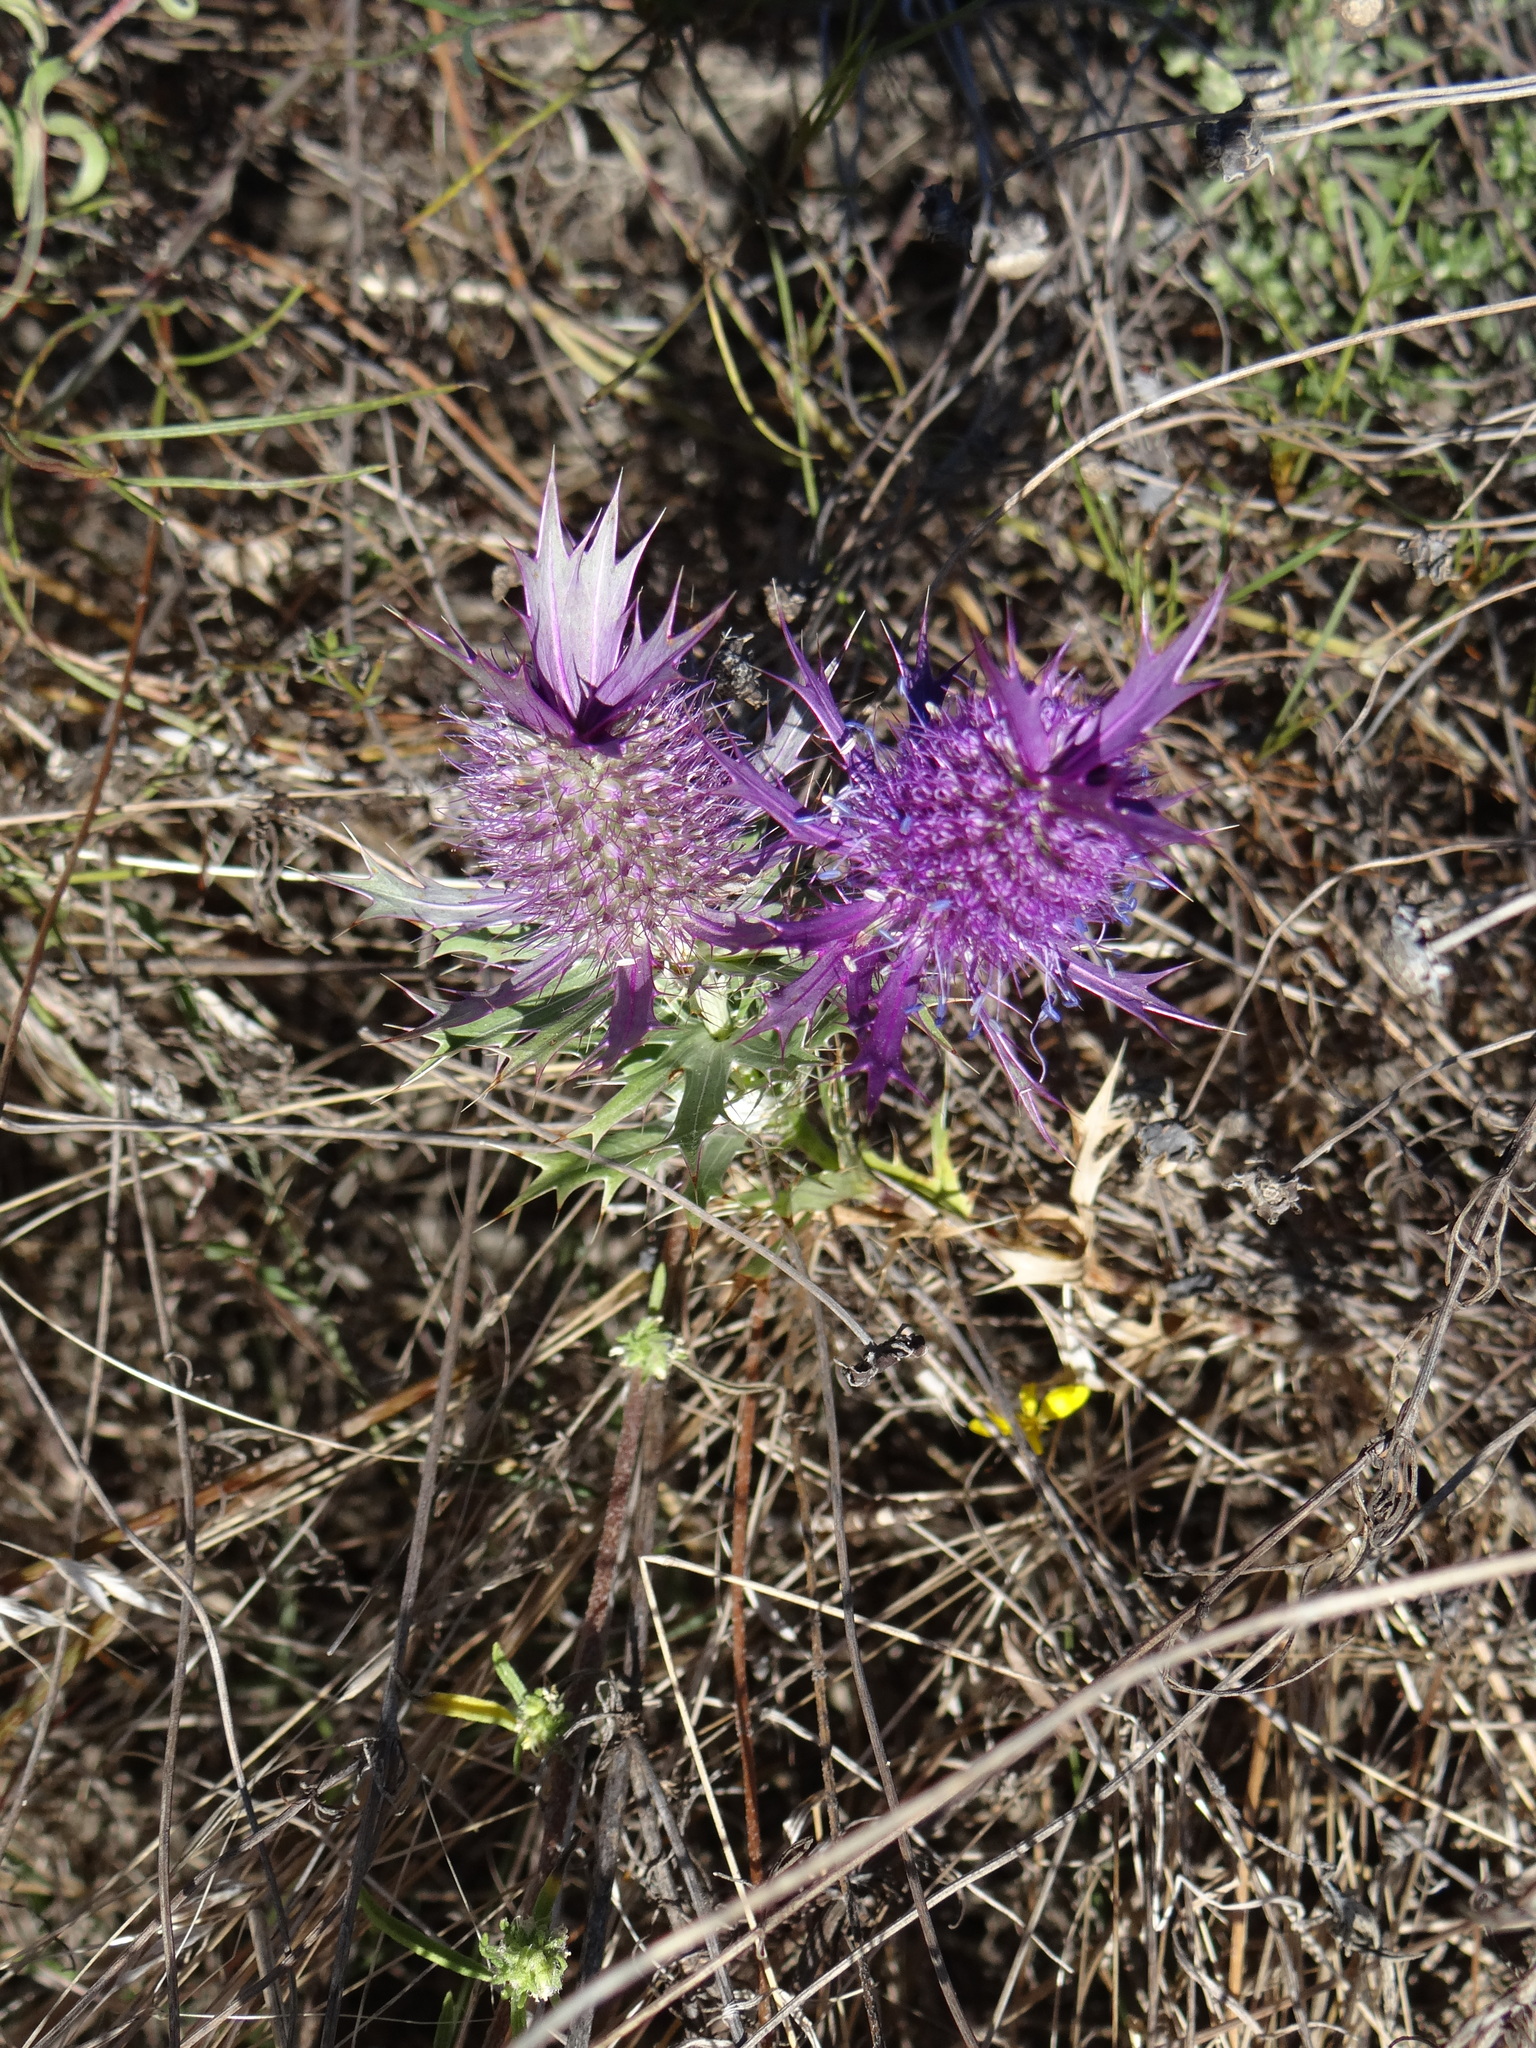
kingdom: Plantae
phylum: Tracheophyta
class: Magnoliopsida
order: Apiales
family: Apiaceae
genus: Eryngium
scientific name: Eryngium leavenworthii
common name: Leavenworth's eryngo
